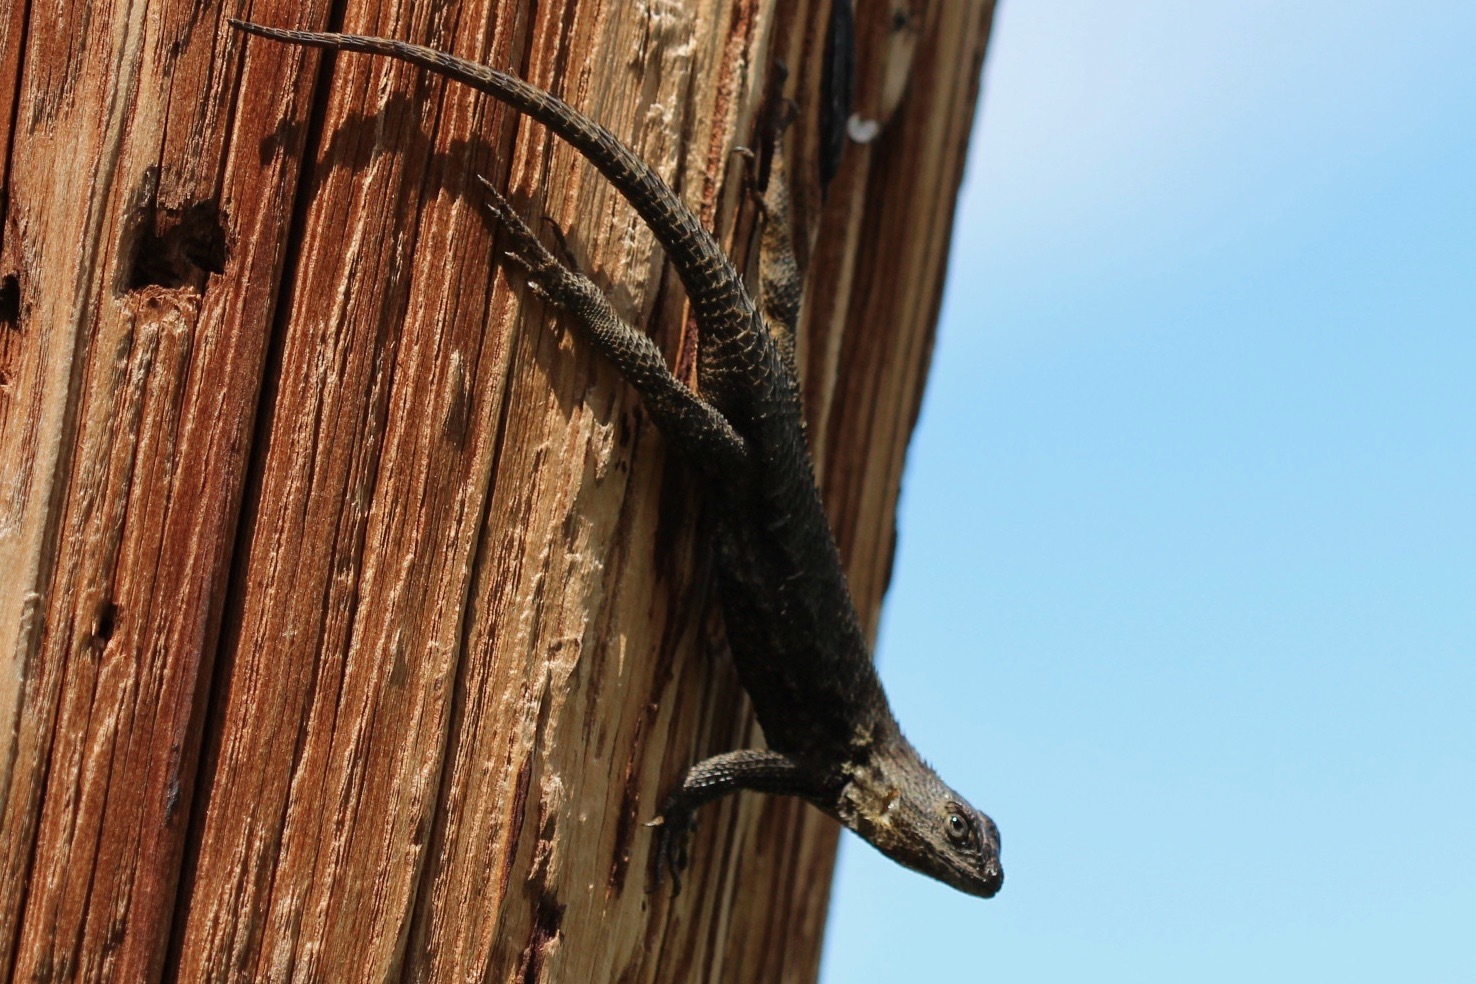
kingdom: Animalia
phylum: Chordata
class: Squamata
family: Phrynosomatidae
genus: Sceloporus
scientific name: Sceloporus occidentalis
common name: Western fence lizard
